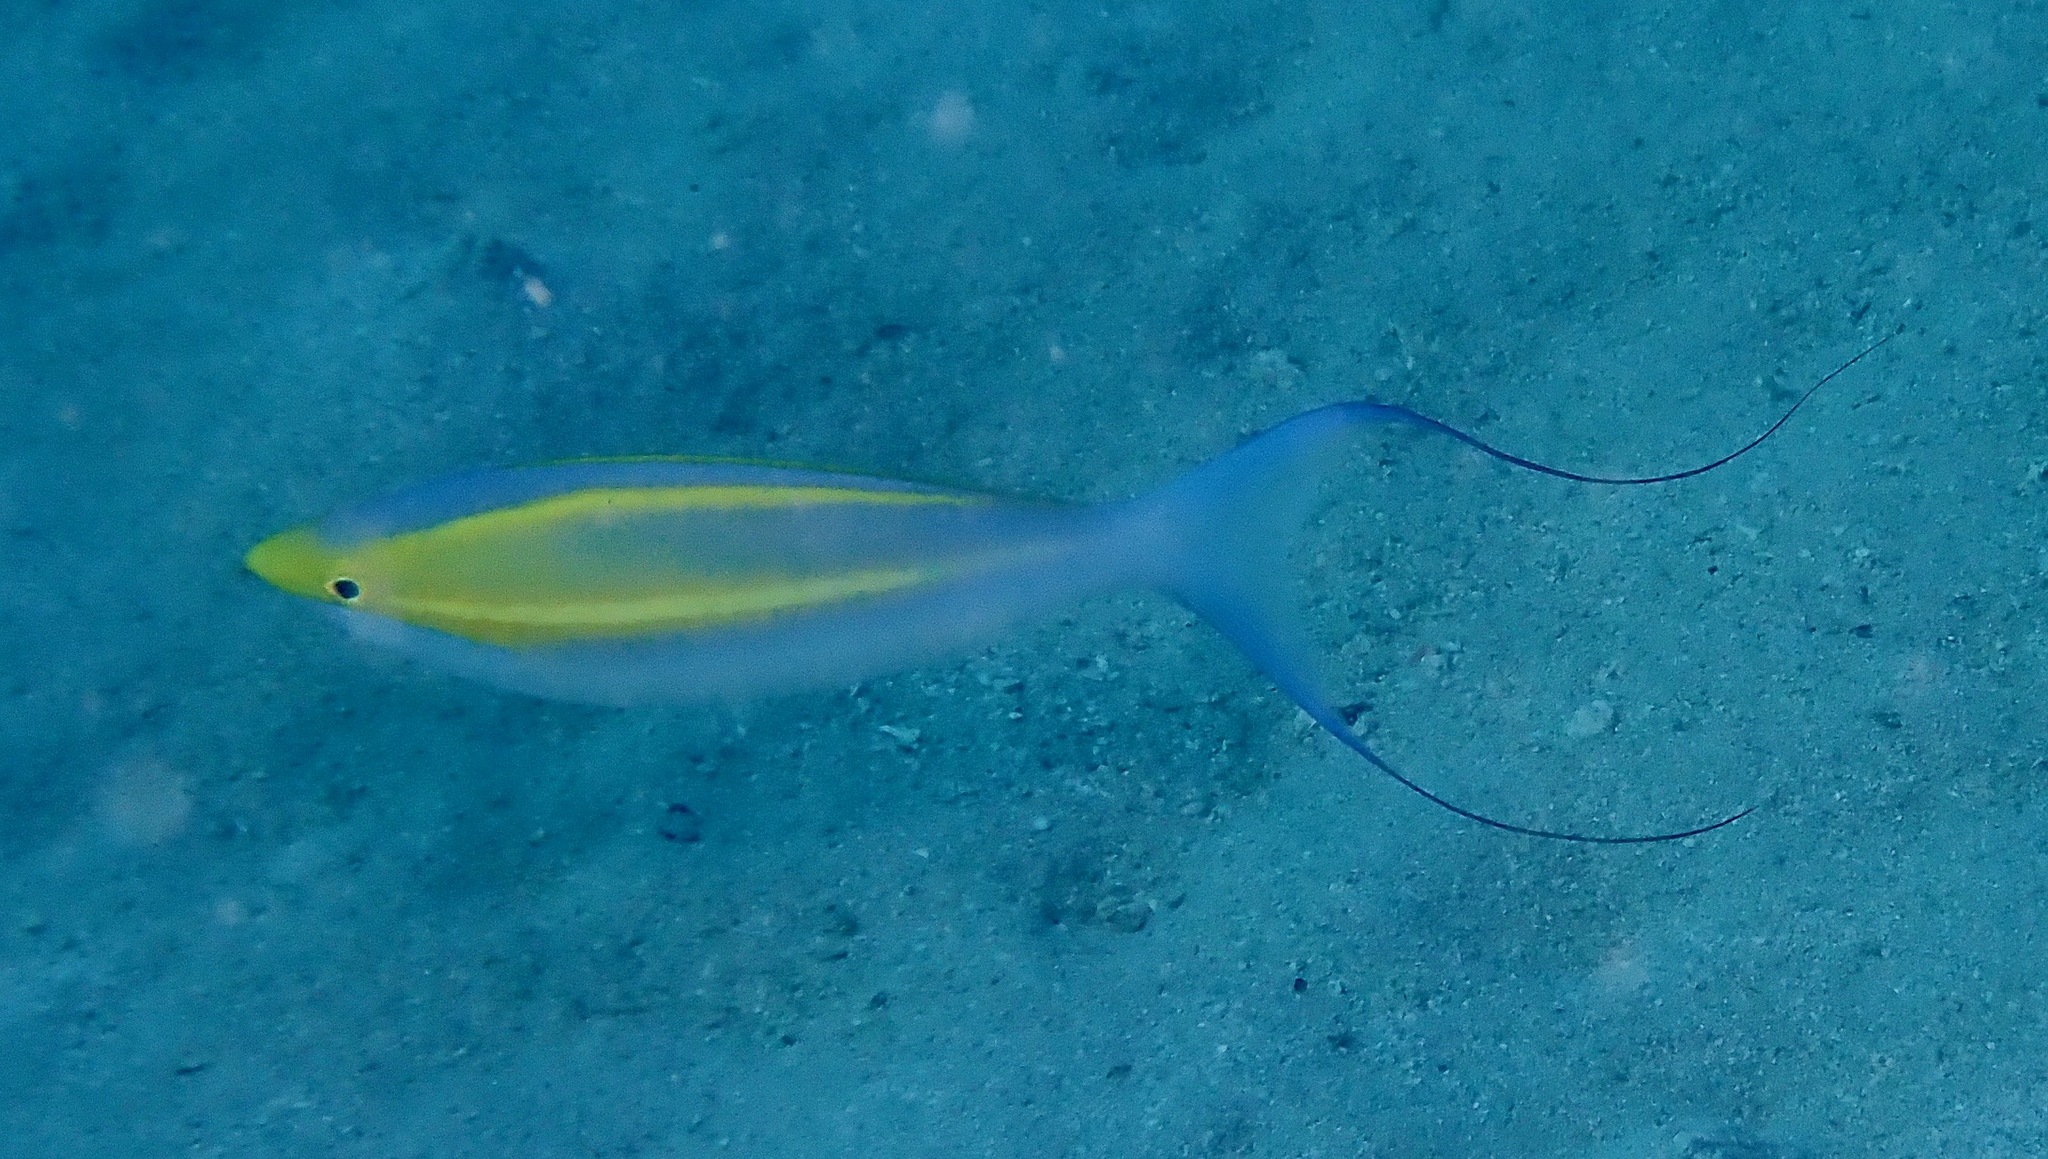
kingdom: Animalia
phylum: Chordata
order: Perciformes
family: Nemipteridae
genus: Pentapodus
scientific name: Pentapodus emeryii
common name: Double whiptail
